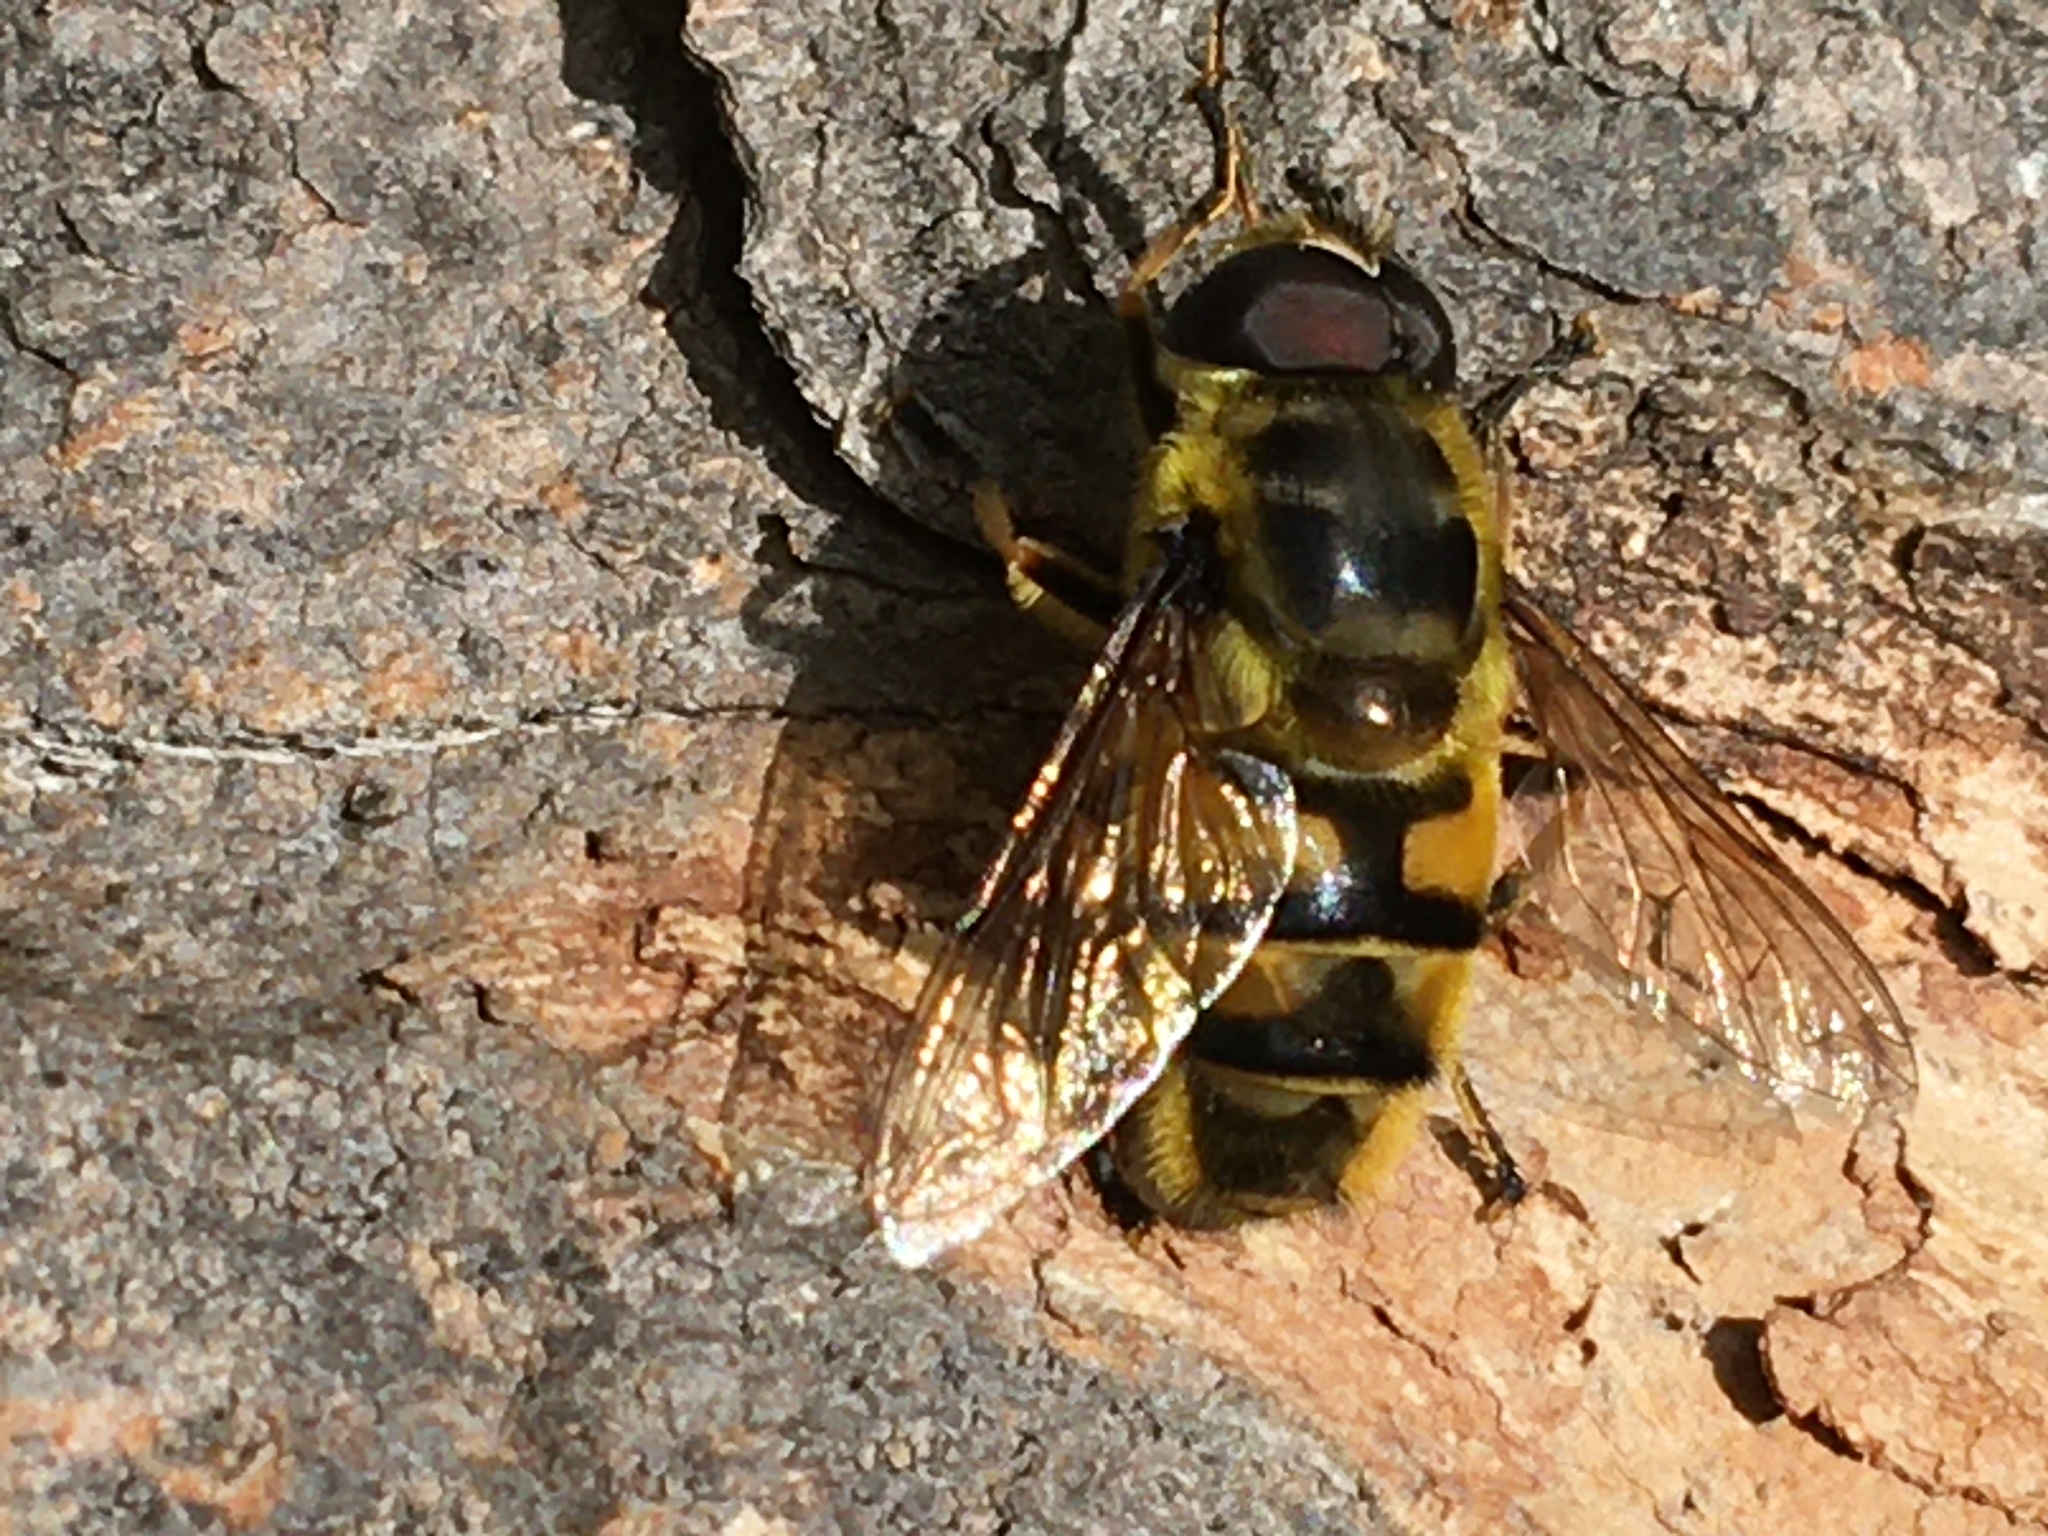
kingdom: Animalia
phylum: Arthropoda
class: Insecta
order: Diptera
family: Syrphidae
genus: Myathropa
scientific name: Myathropa florea
